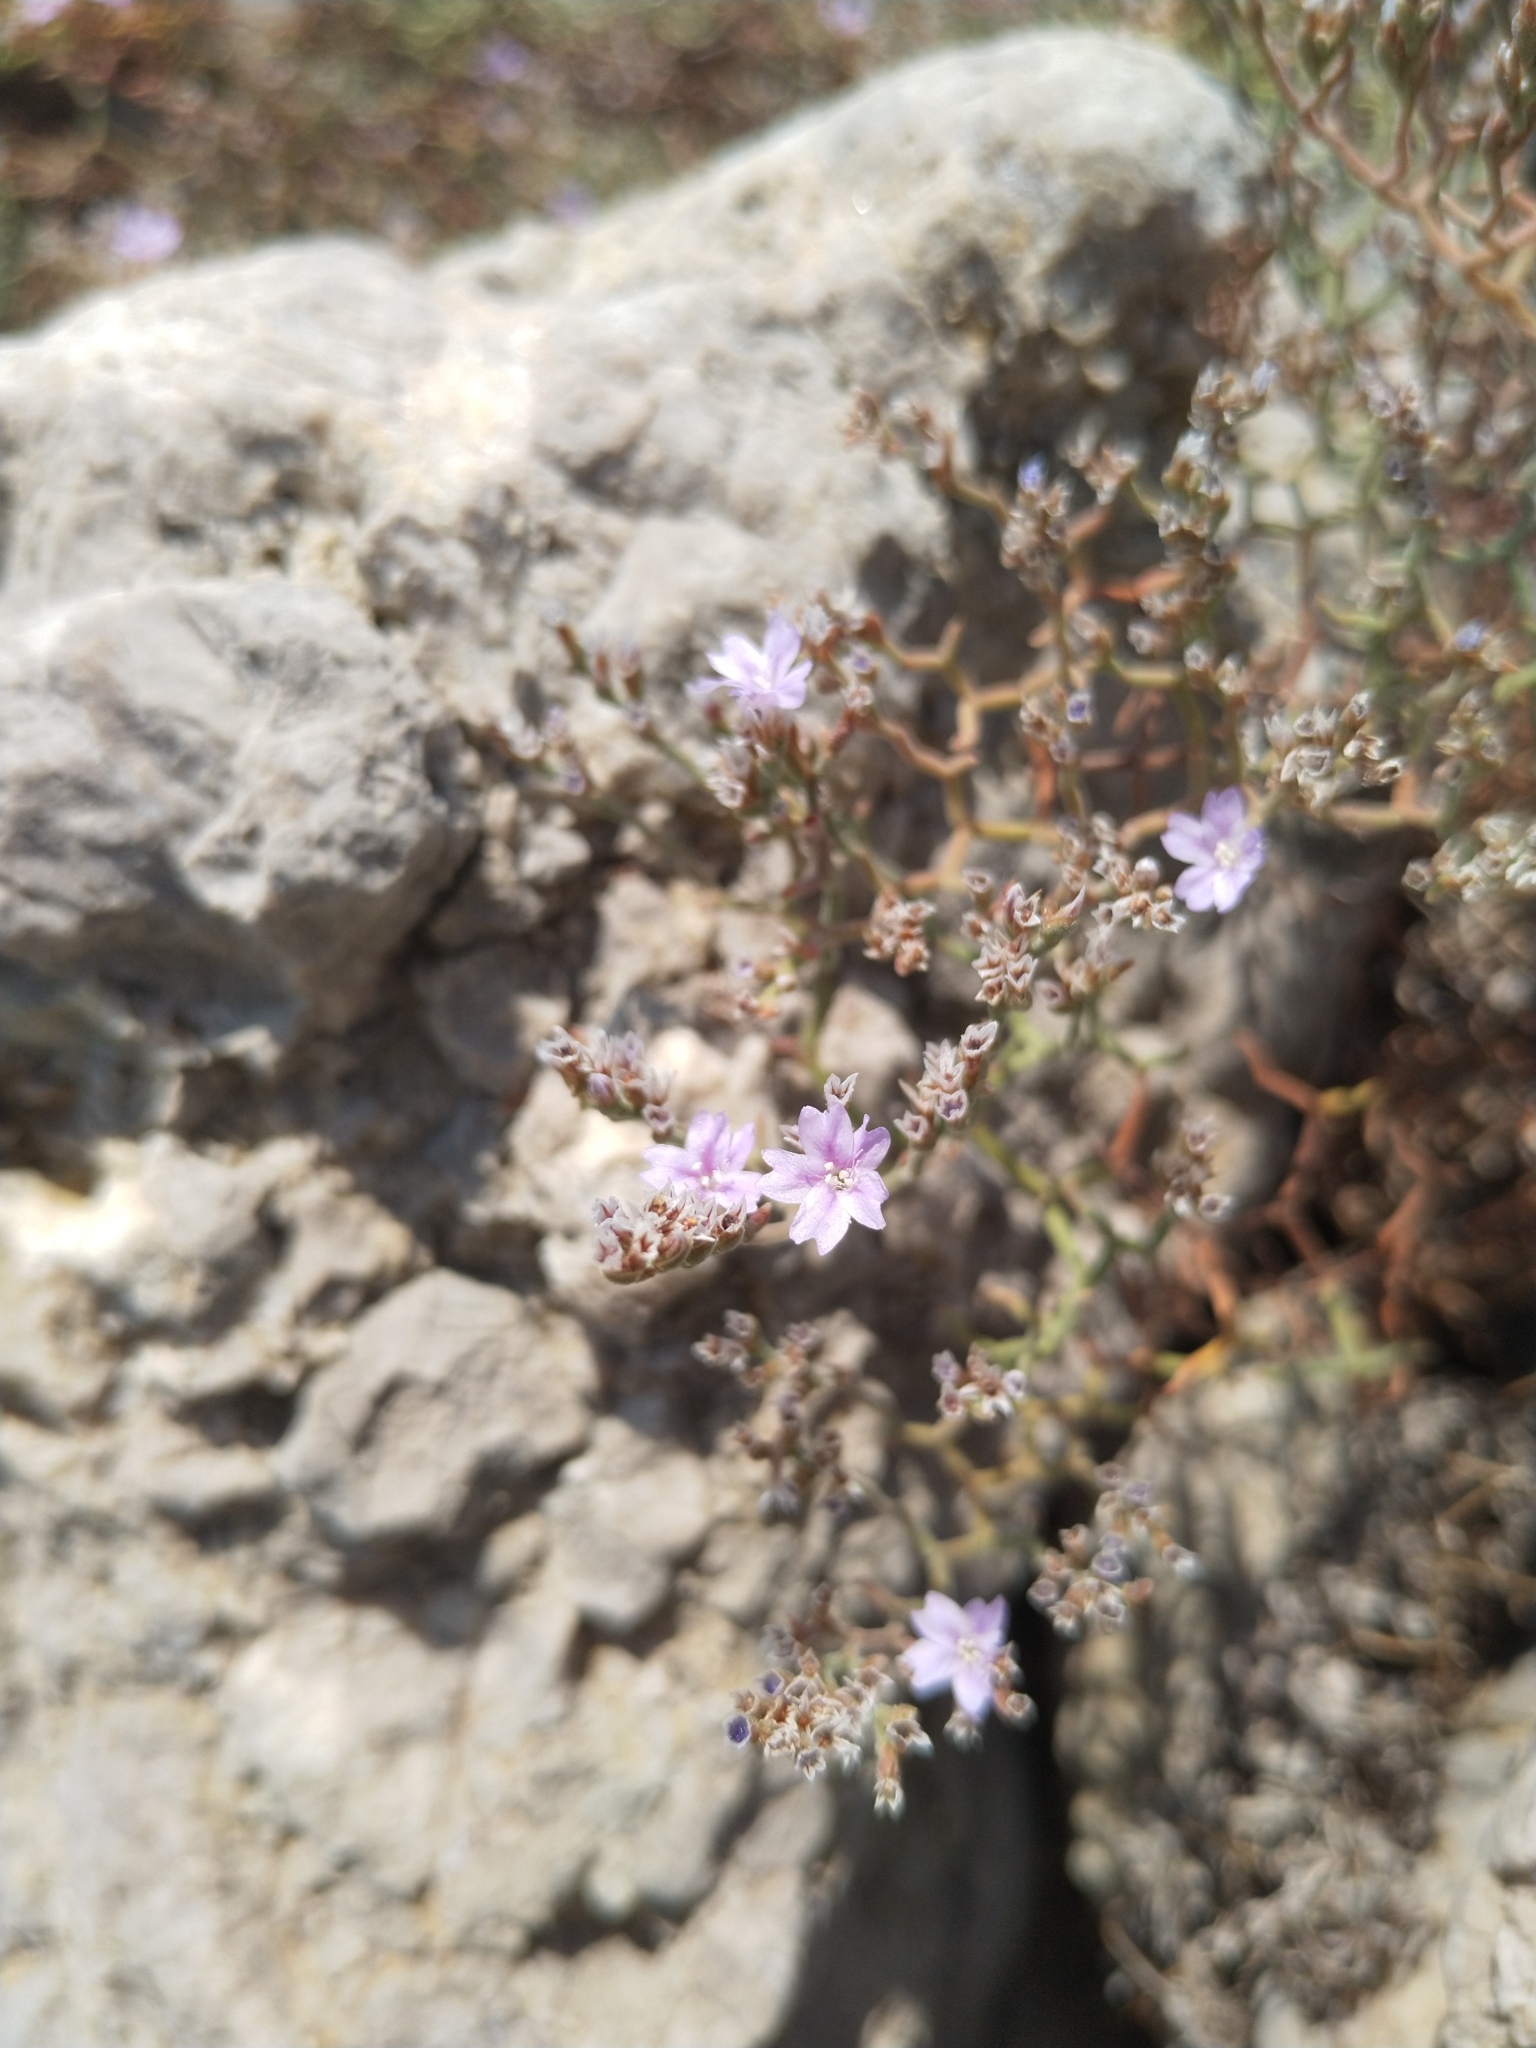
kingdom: Plantae
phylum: Tracheophyta
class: Magnoliopsida
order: Caryophyllales
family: Plumbaginaceae
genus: Limonium
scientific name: Limonium cancellatum
